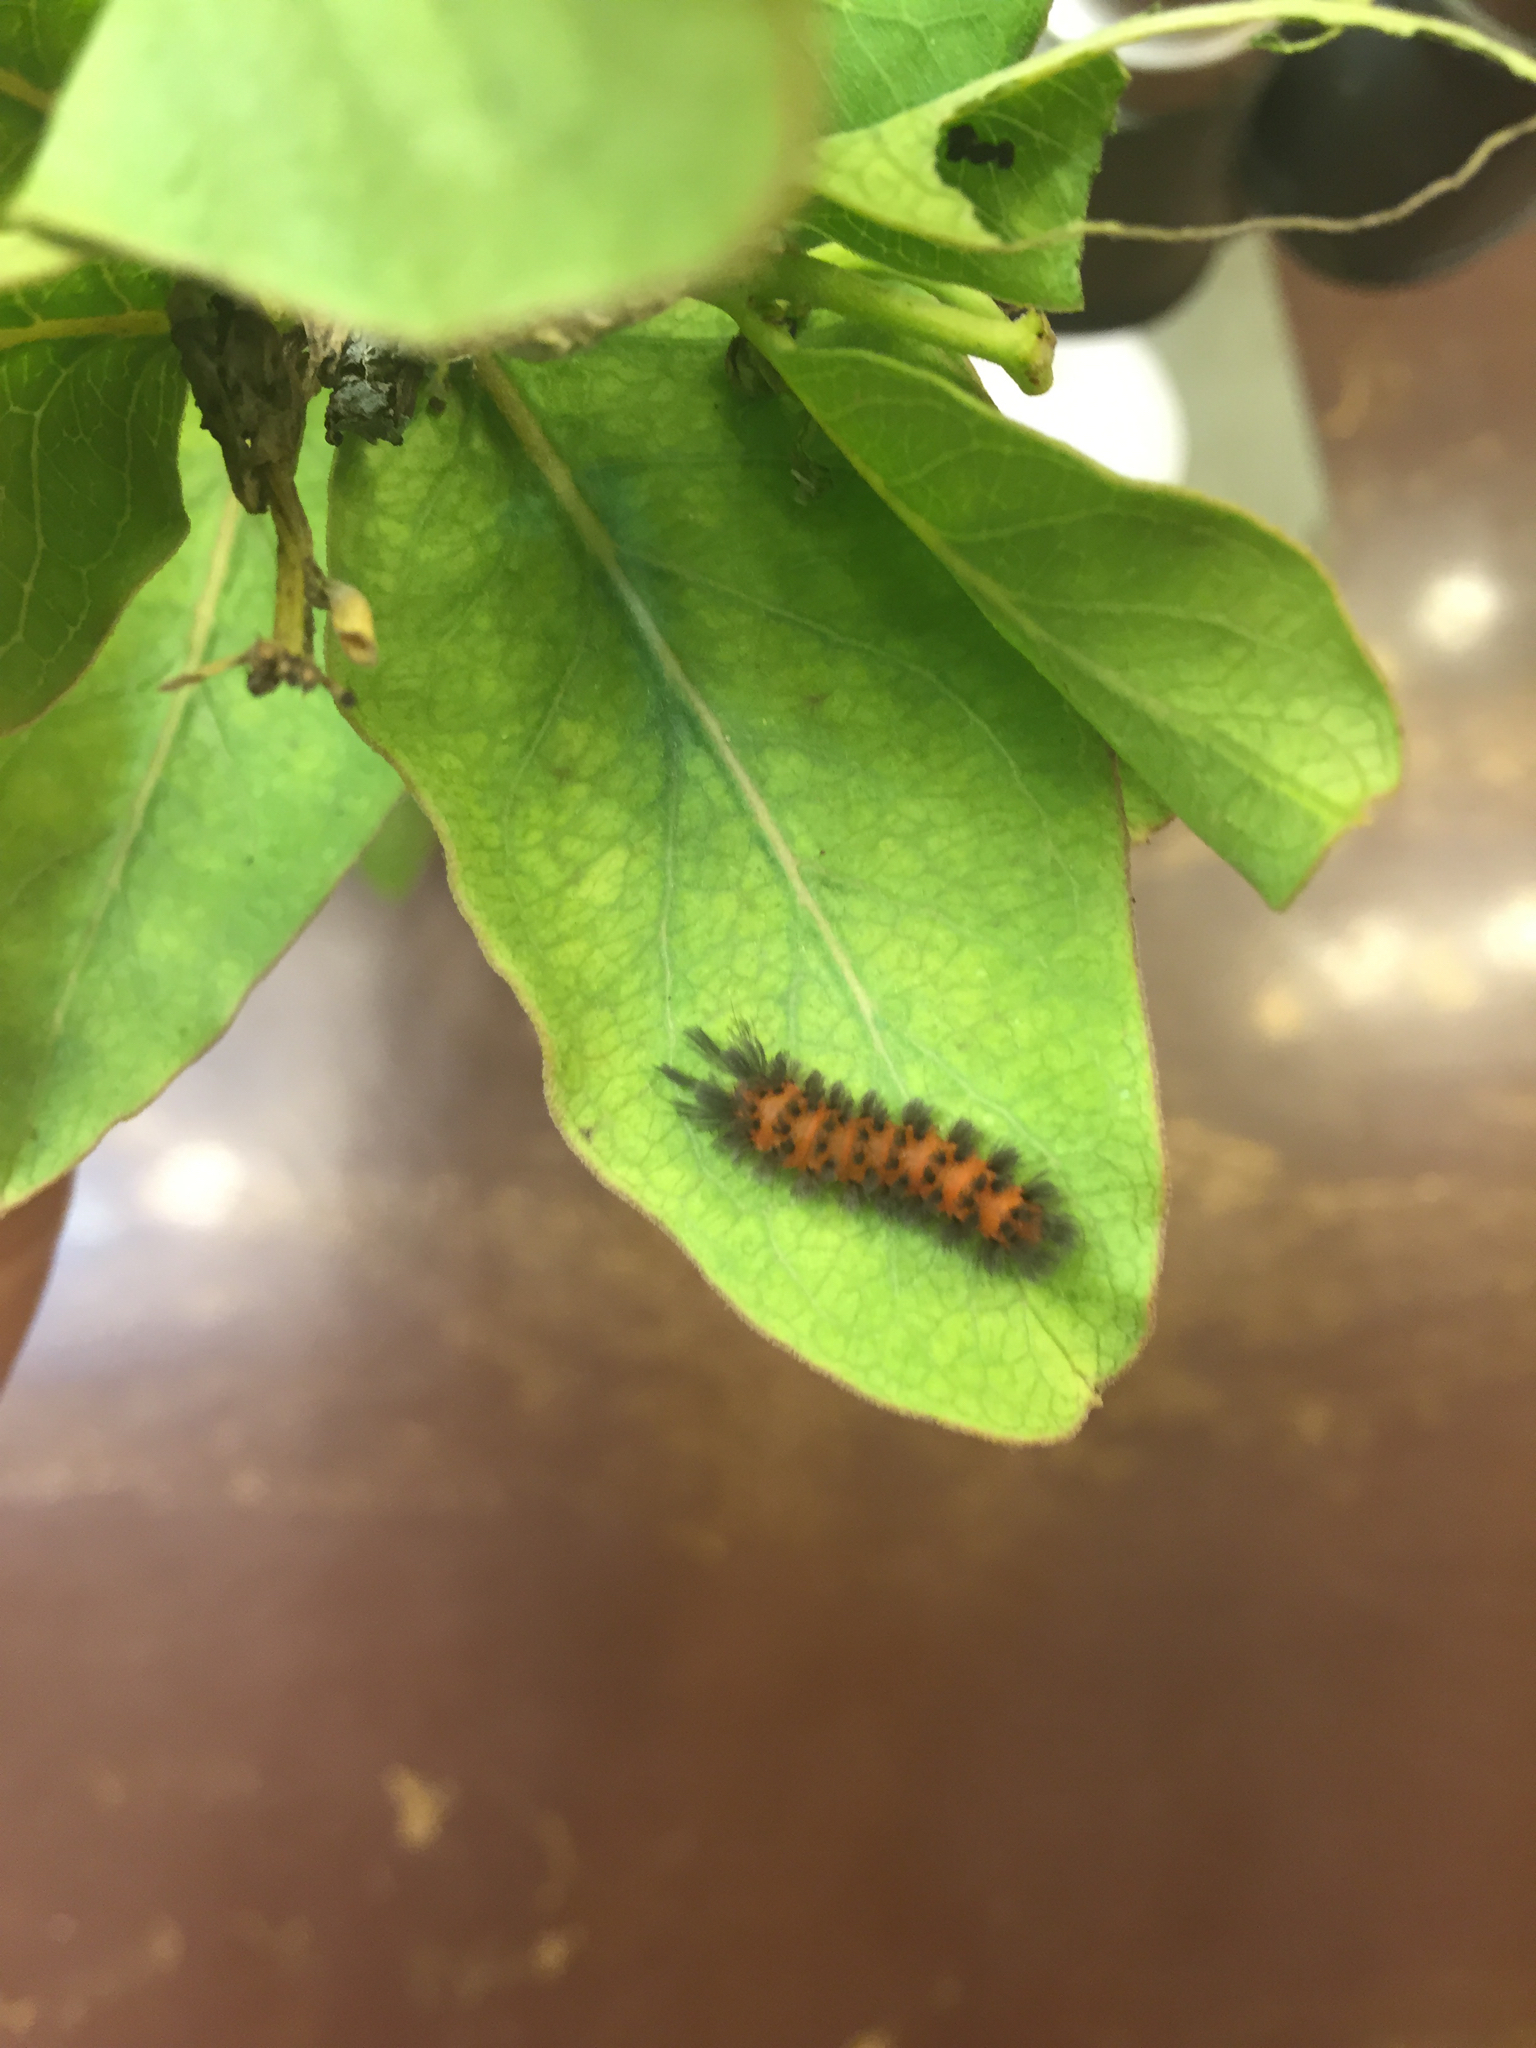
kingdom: Animalia
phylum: Arthropoda
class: Insecta
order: Lepidoptera
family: Erebidae
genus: Cycnia
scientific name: Cycnia collaris
